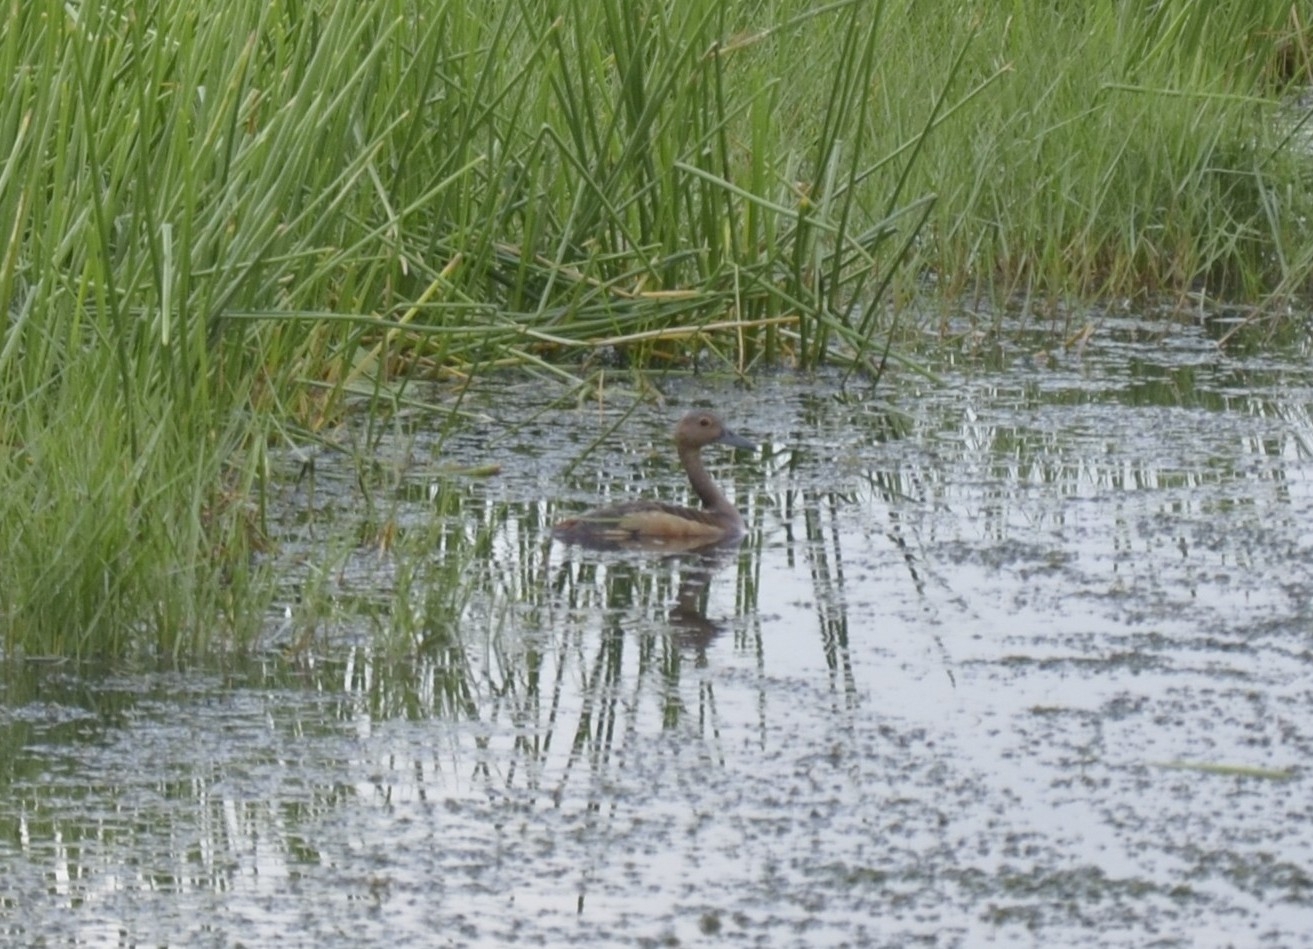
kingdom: Animalia
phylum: Chordata
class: Aves
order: Anseriformes
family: Anatidae
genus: Dendrocygna
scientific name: Dendrocygna javanica
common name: Lesser whistling-duck
